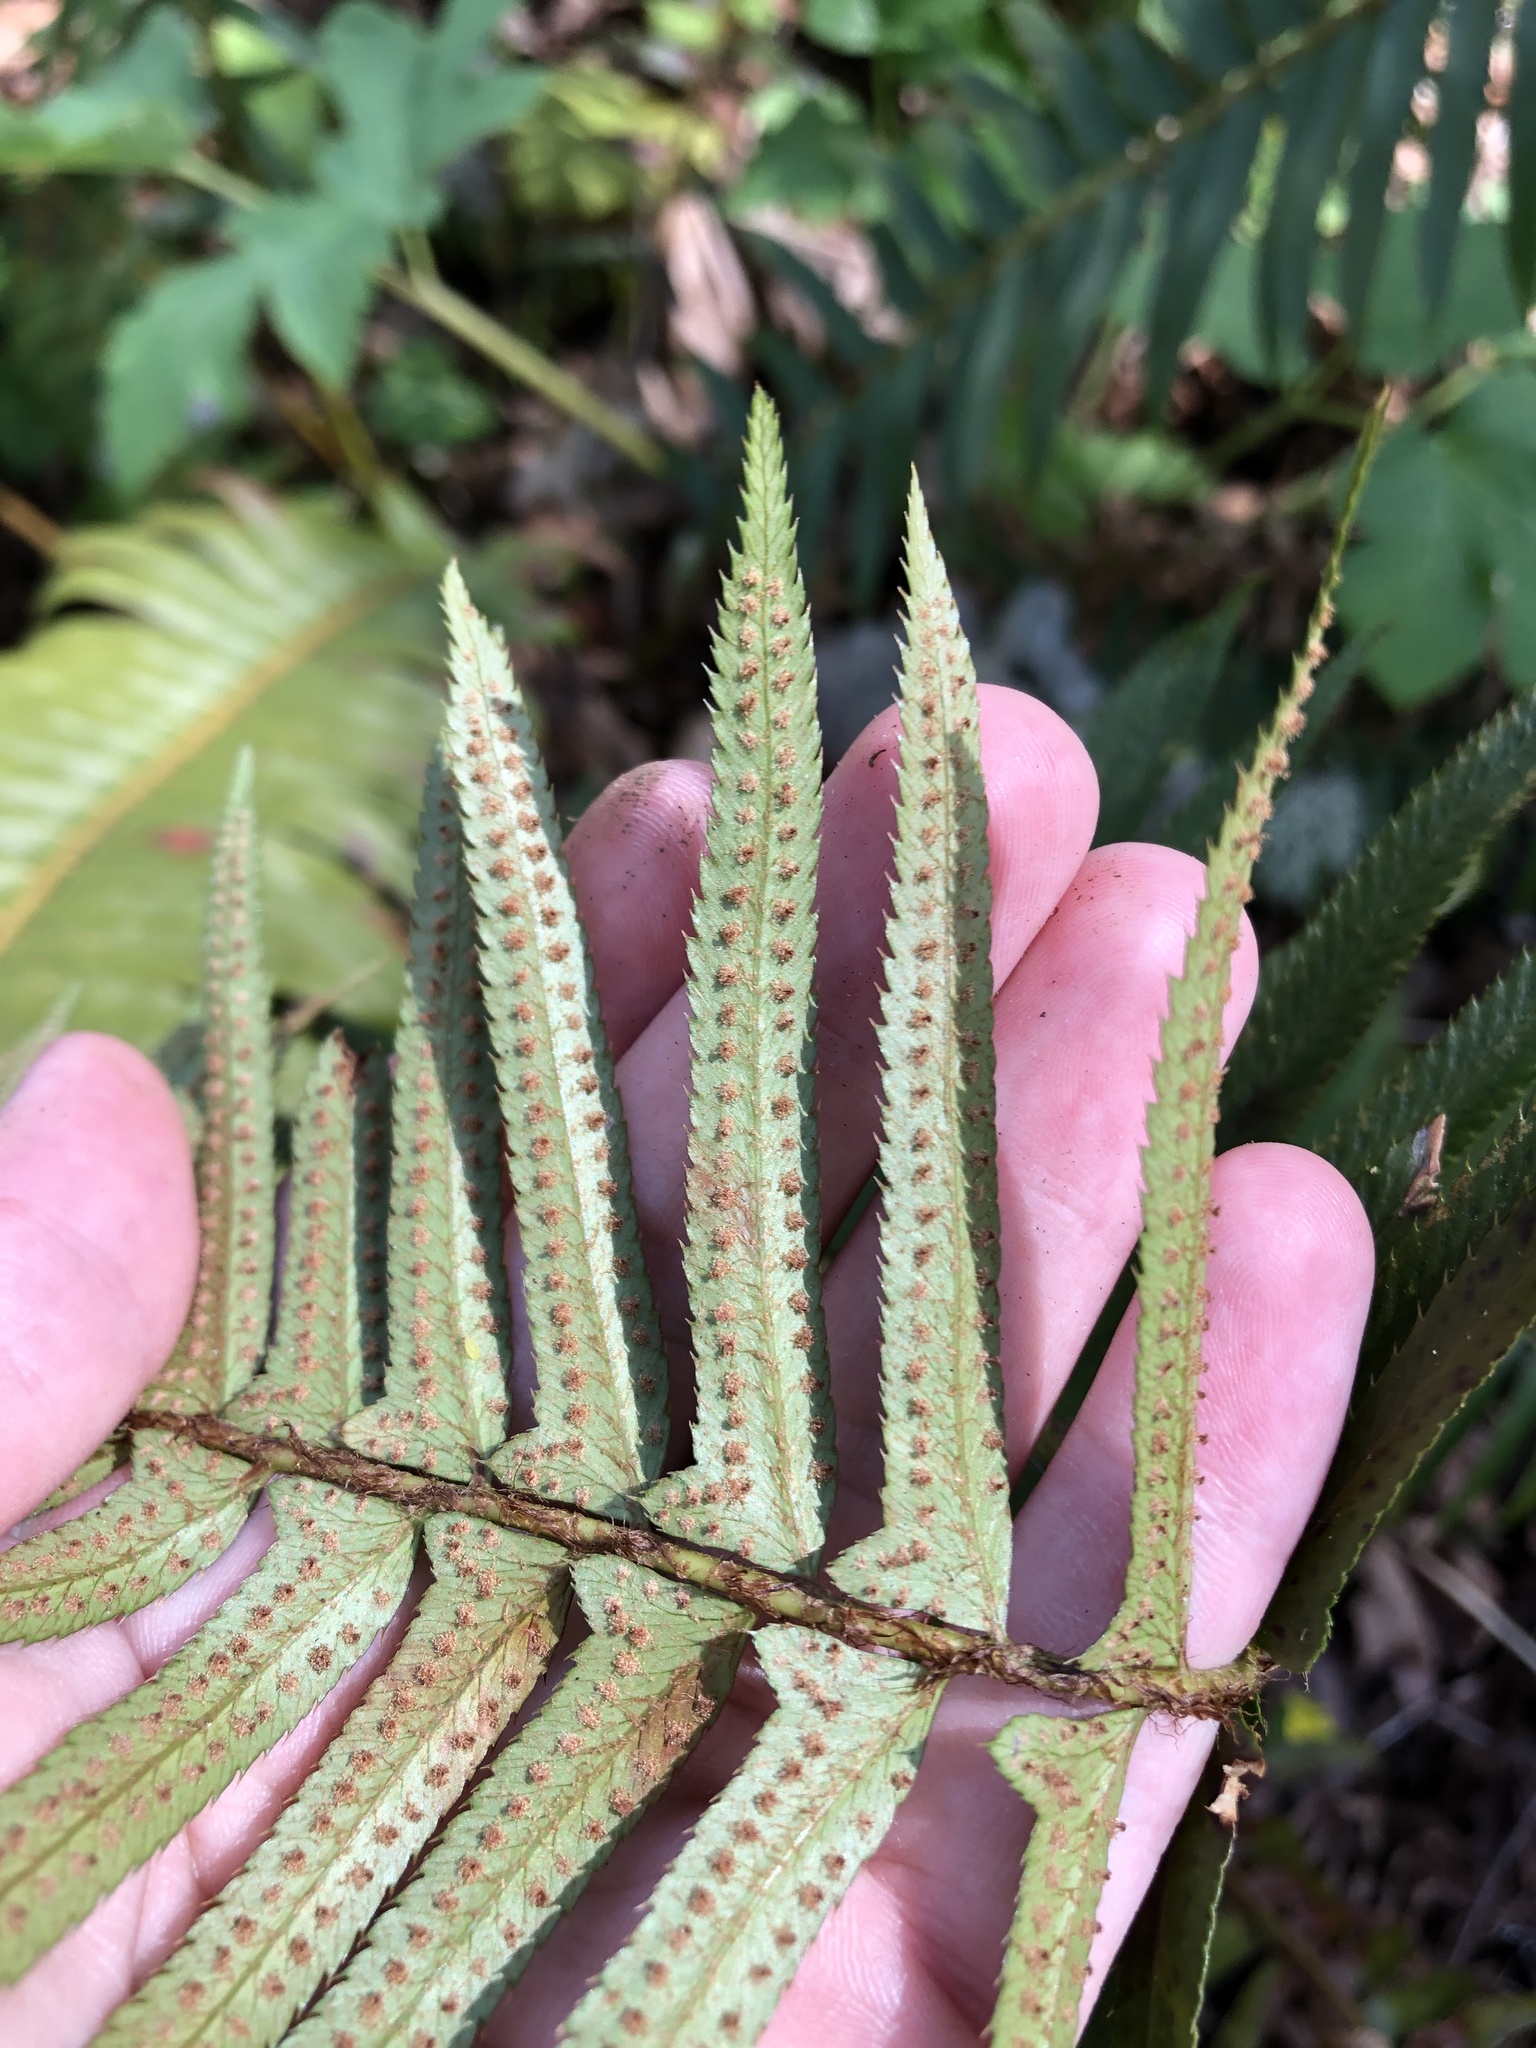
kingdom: Plantae
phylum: Tracheophyta
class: Polypodiopsida
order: Polypodiales
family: Dryopteridaceae
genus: Polystichum
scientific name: Polystichum munitum
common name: Western sword-fern
